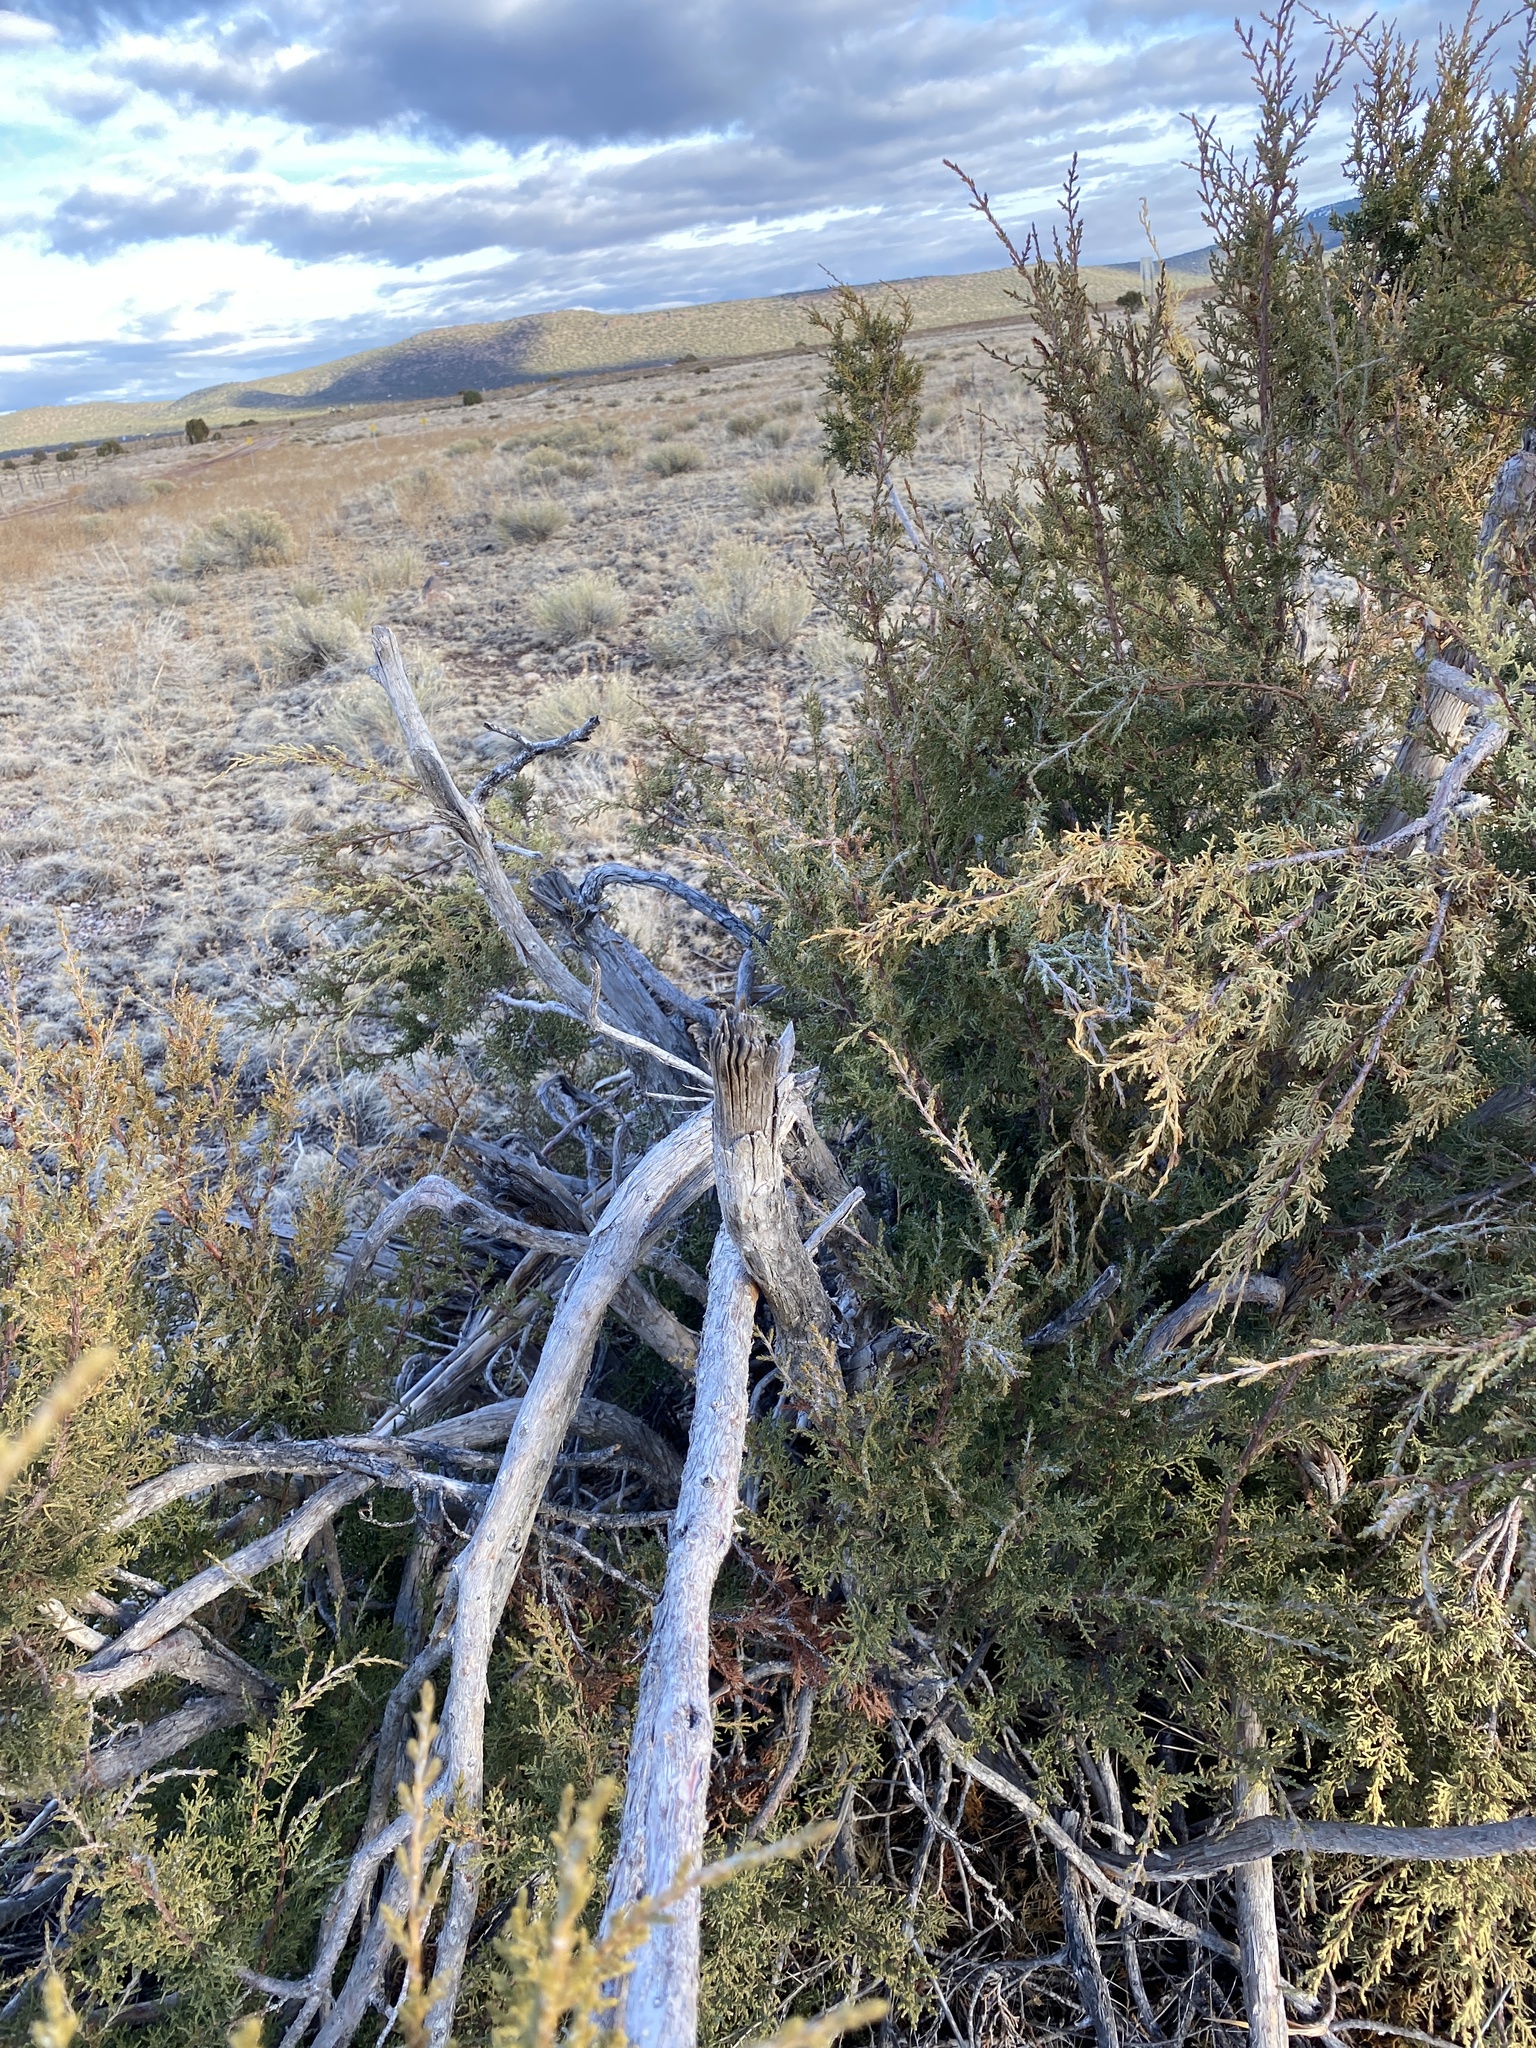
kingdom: Plantae
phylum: Tracheophyta
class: Pinopsida
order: Pinales
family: Cupressaceae
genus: Juniperus
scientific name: Juniperus osteosperma
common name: Utah juniper
